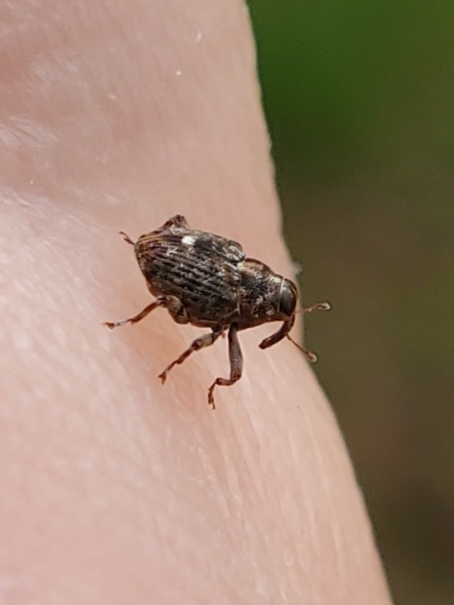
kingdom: Animalia
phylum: Arthropoda
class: Insecta
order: Coleoptera
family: Curculionidae
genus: Lechriops
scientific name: Lechriops oculatus
